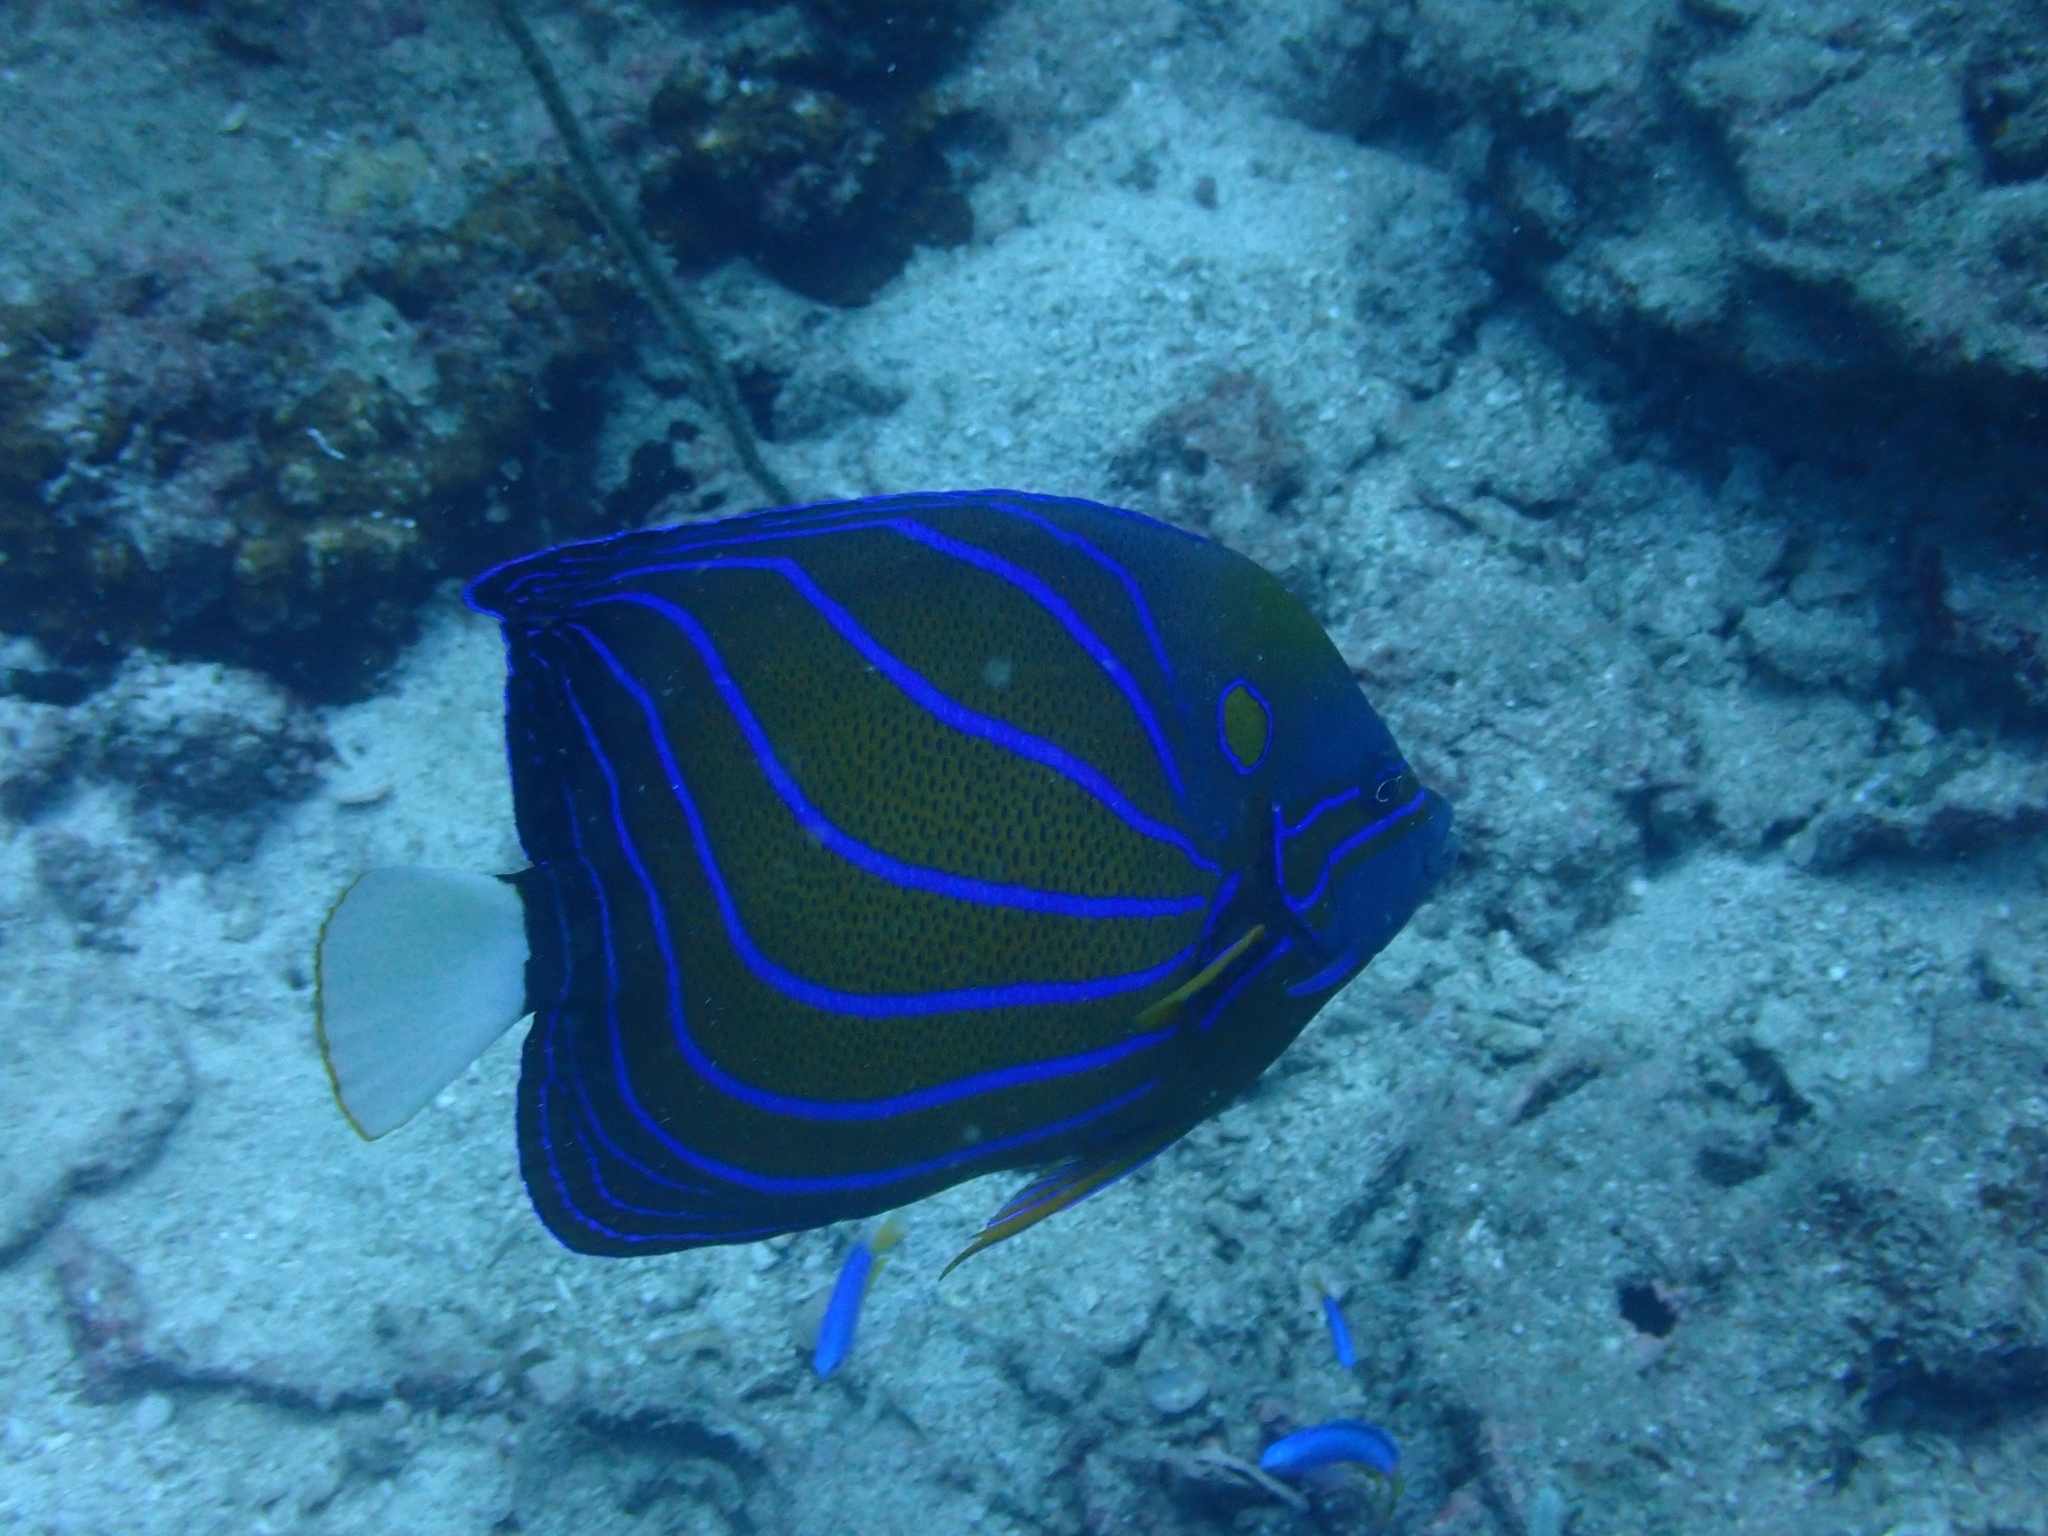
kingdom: Animalia
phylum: Chordata
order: Perciformes
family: Pomacanthidae
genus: Pomacanthus
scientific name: Pomacanthus annularis
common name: Bluering angelfish
